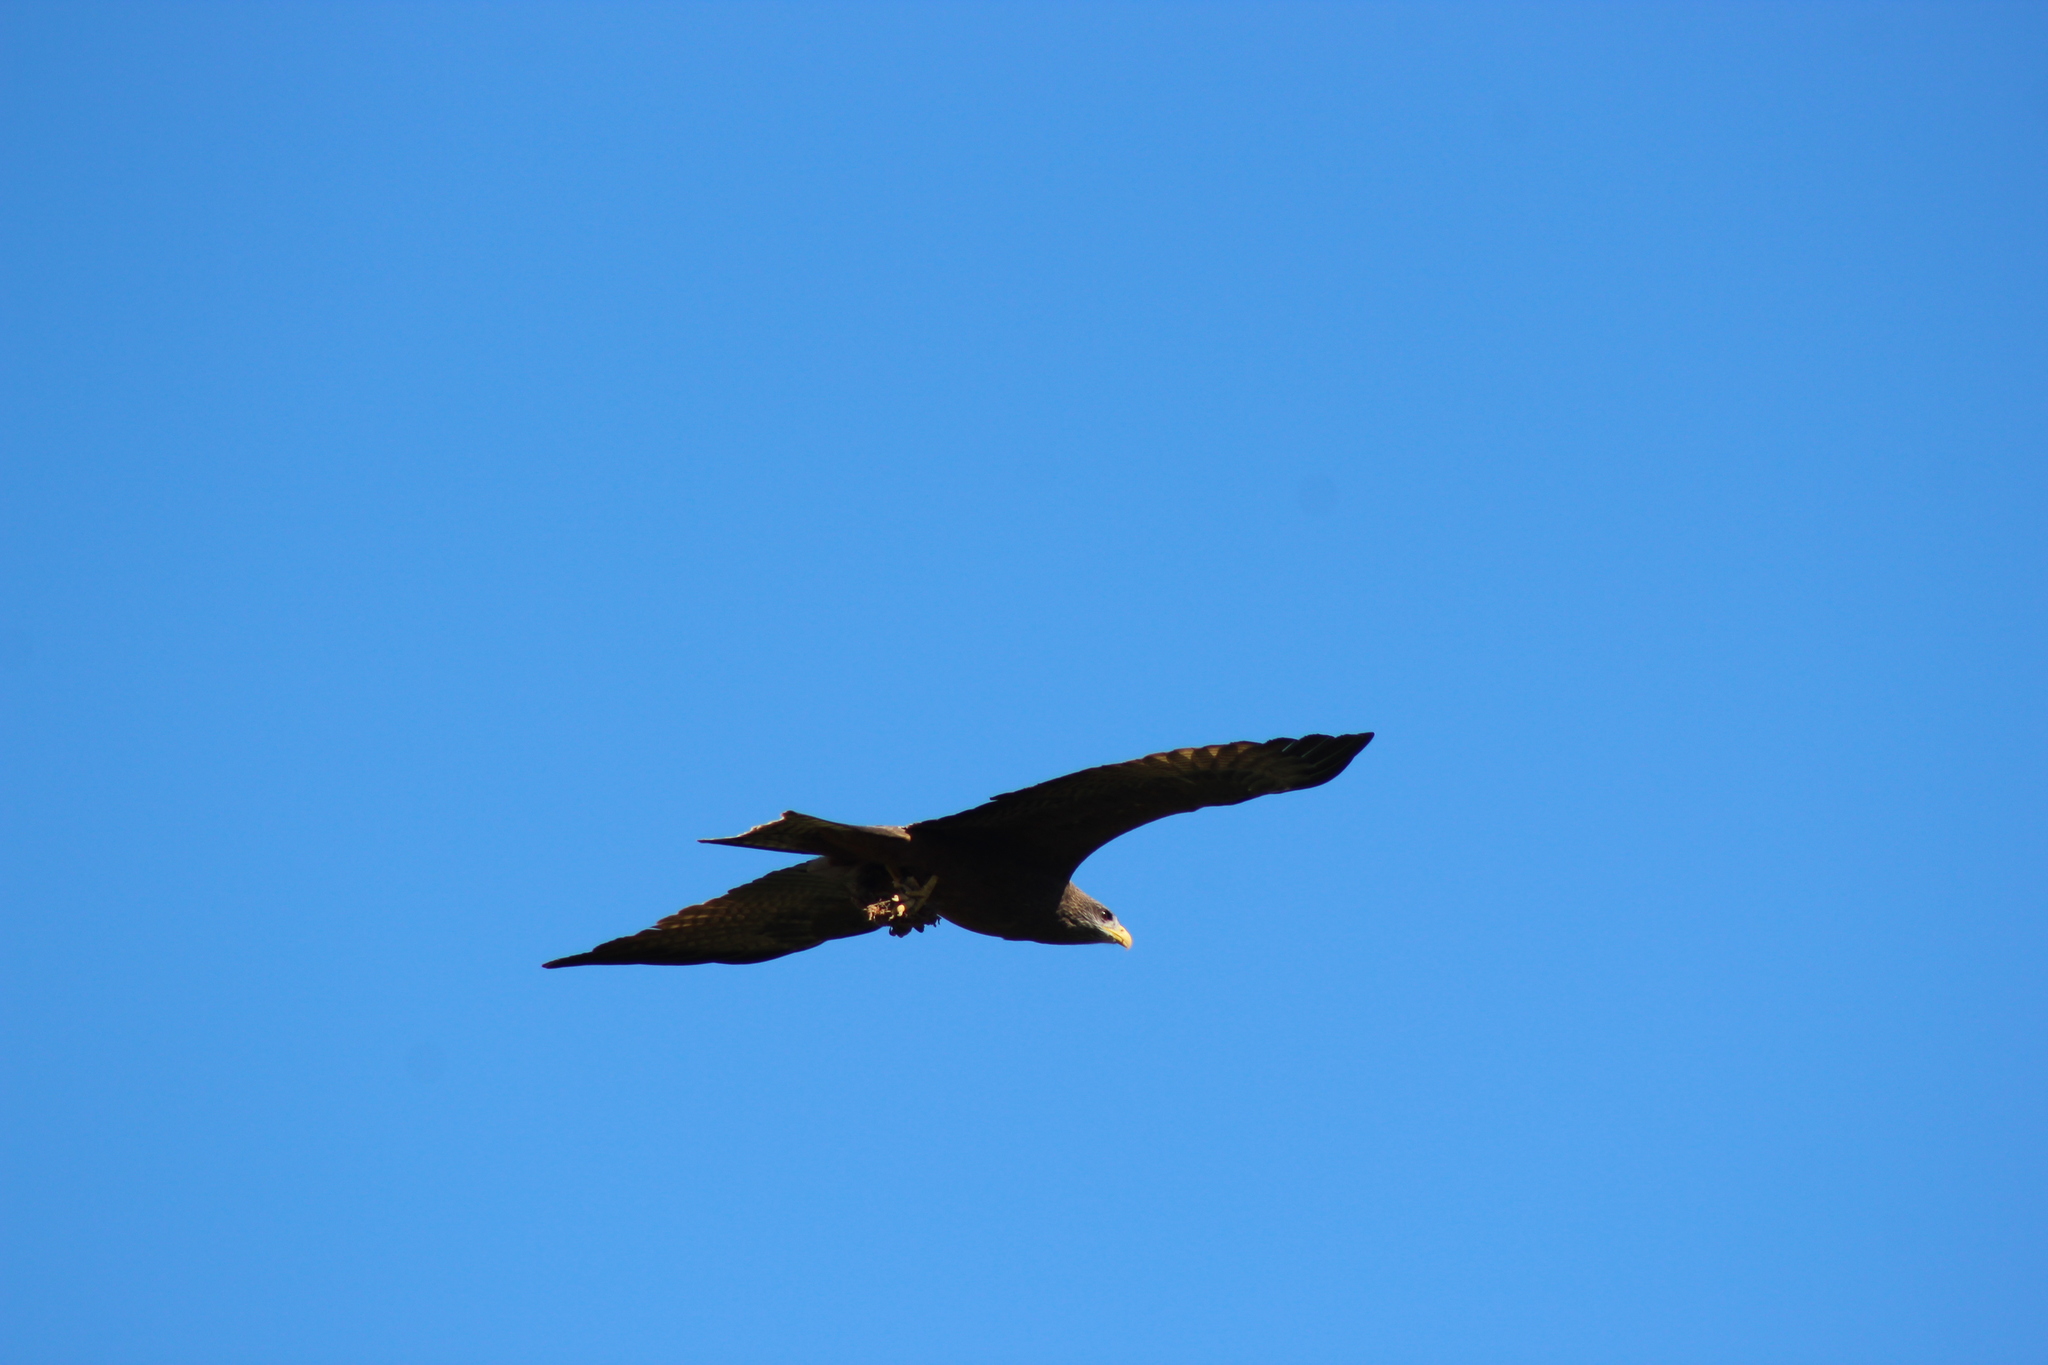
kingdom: Animalia
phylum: Chordata
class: Aves
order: Accipitriformes
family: Accipitridae
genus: Milvus
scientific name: Milvus migrans
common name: Black kite
